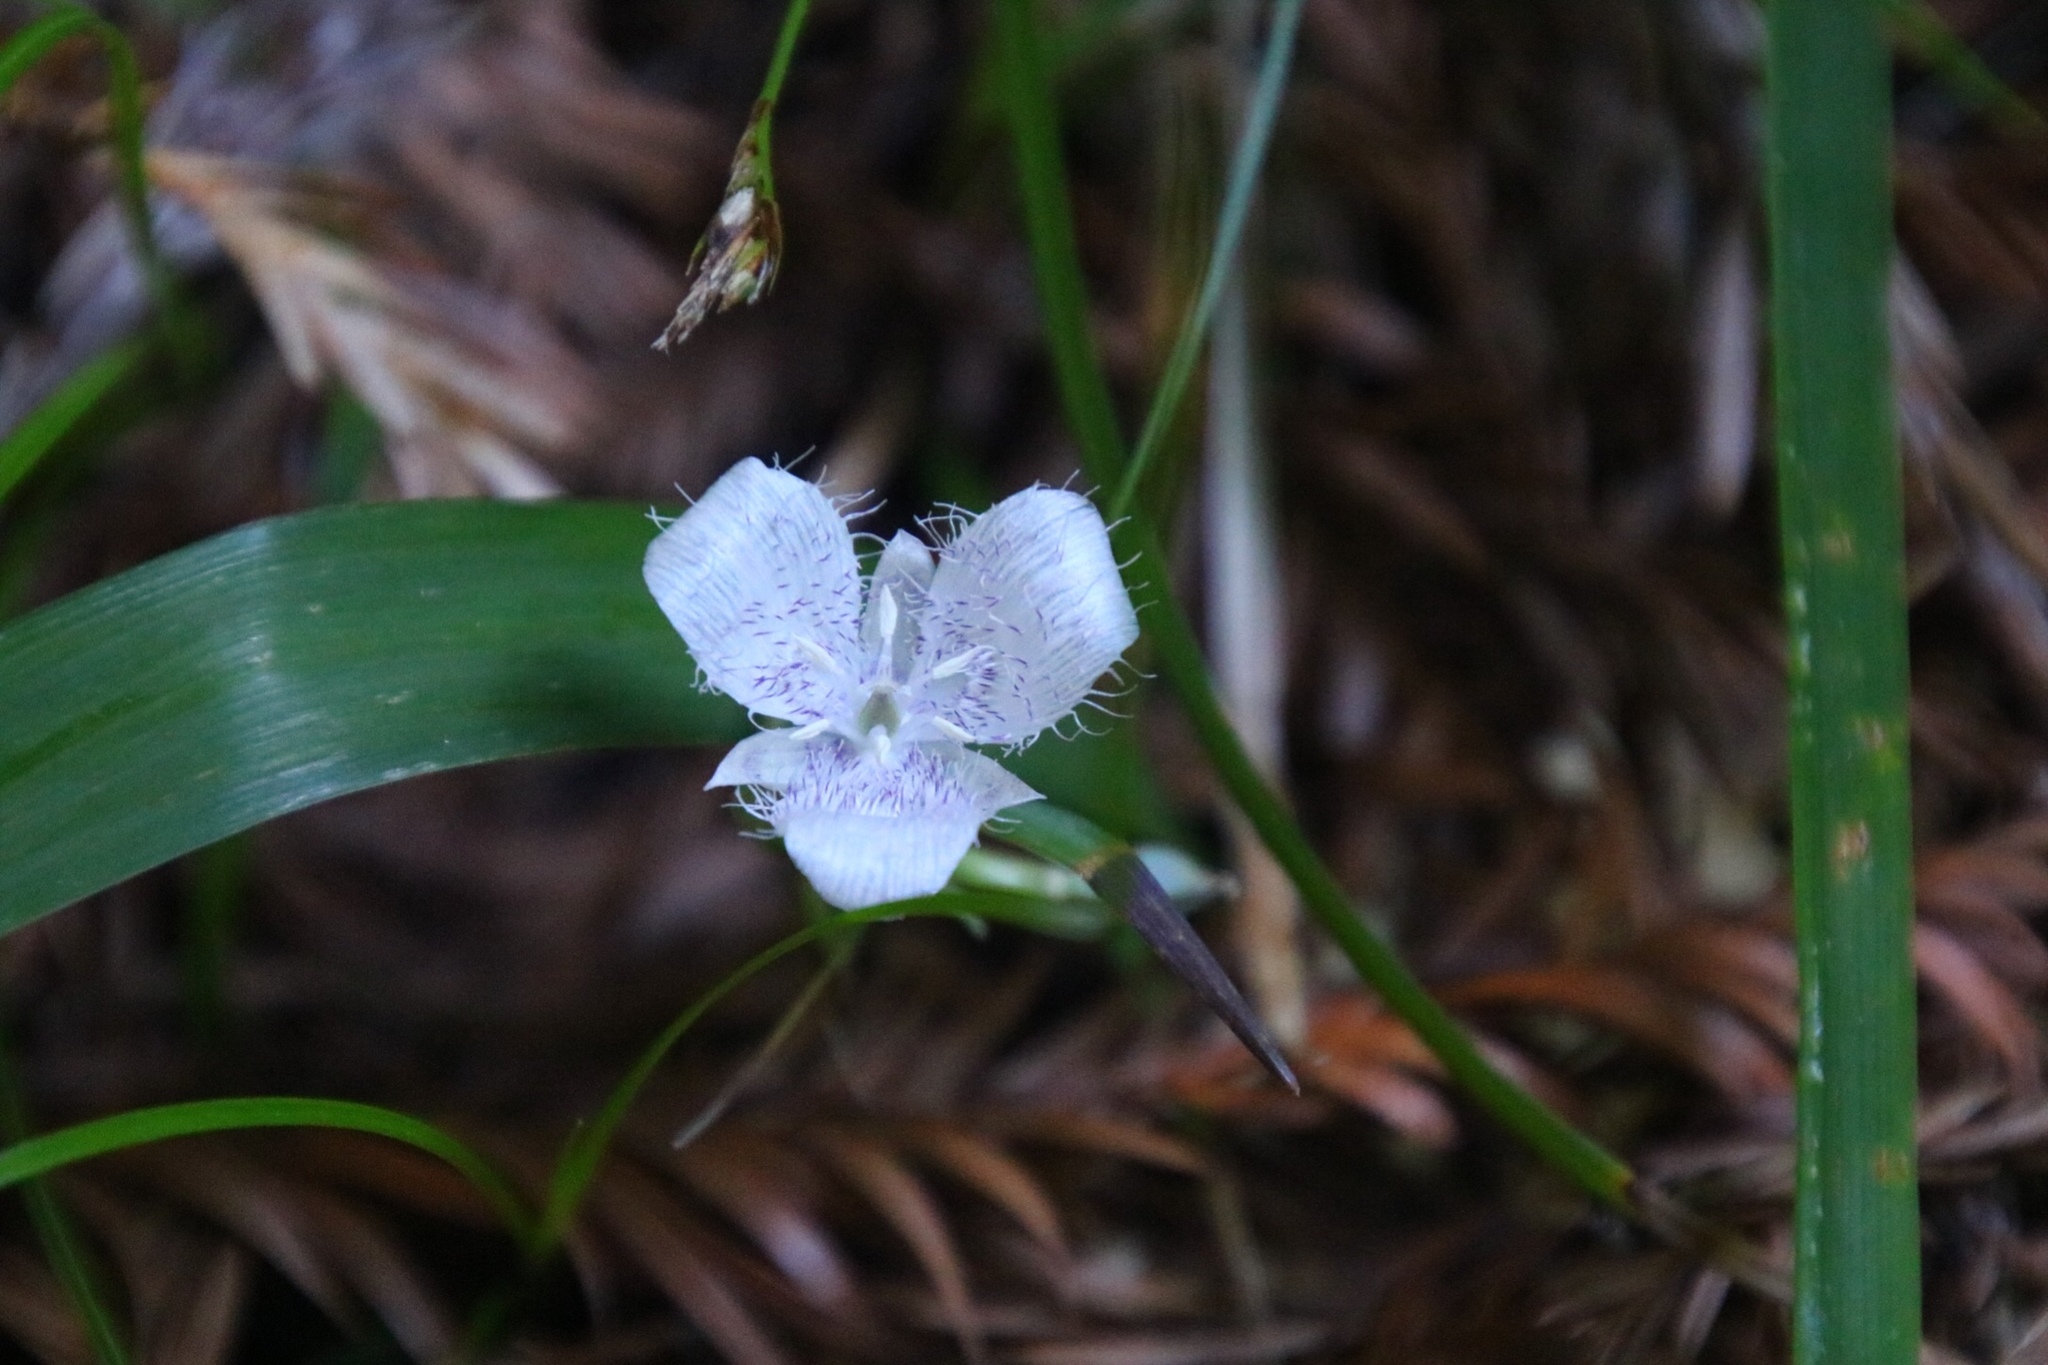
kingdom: Plantae
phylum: Tracheophyta
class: Liliopsida
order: Liliales
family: Liliaceae
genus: Calochortus
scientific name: Calochortus tolmiei
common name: Pussy-ears
